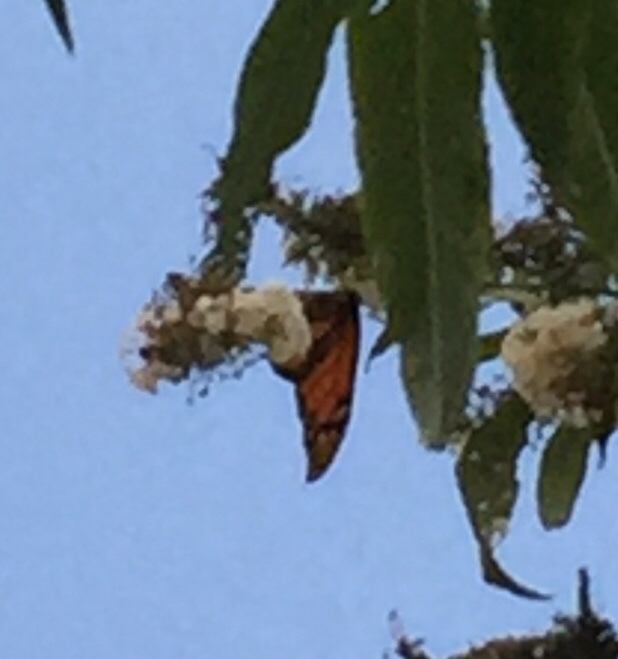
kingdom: Animalia
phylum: Arthropoda
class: Insecta
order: Lepidoptera
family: Nymphalidae
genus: Danaus
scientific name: Danaus plexippus
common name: Monarch
